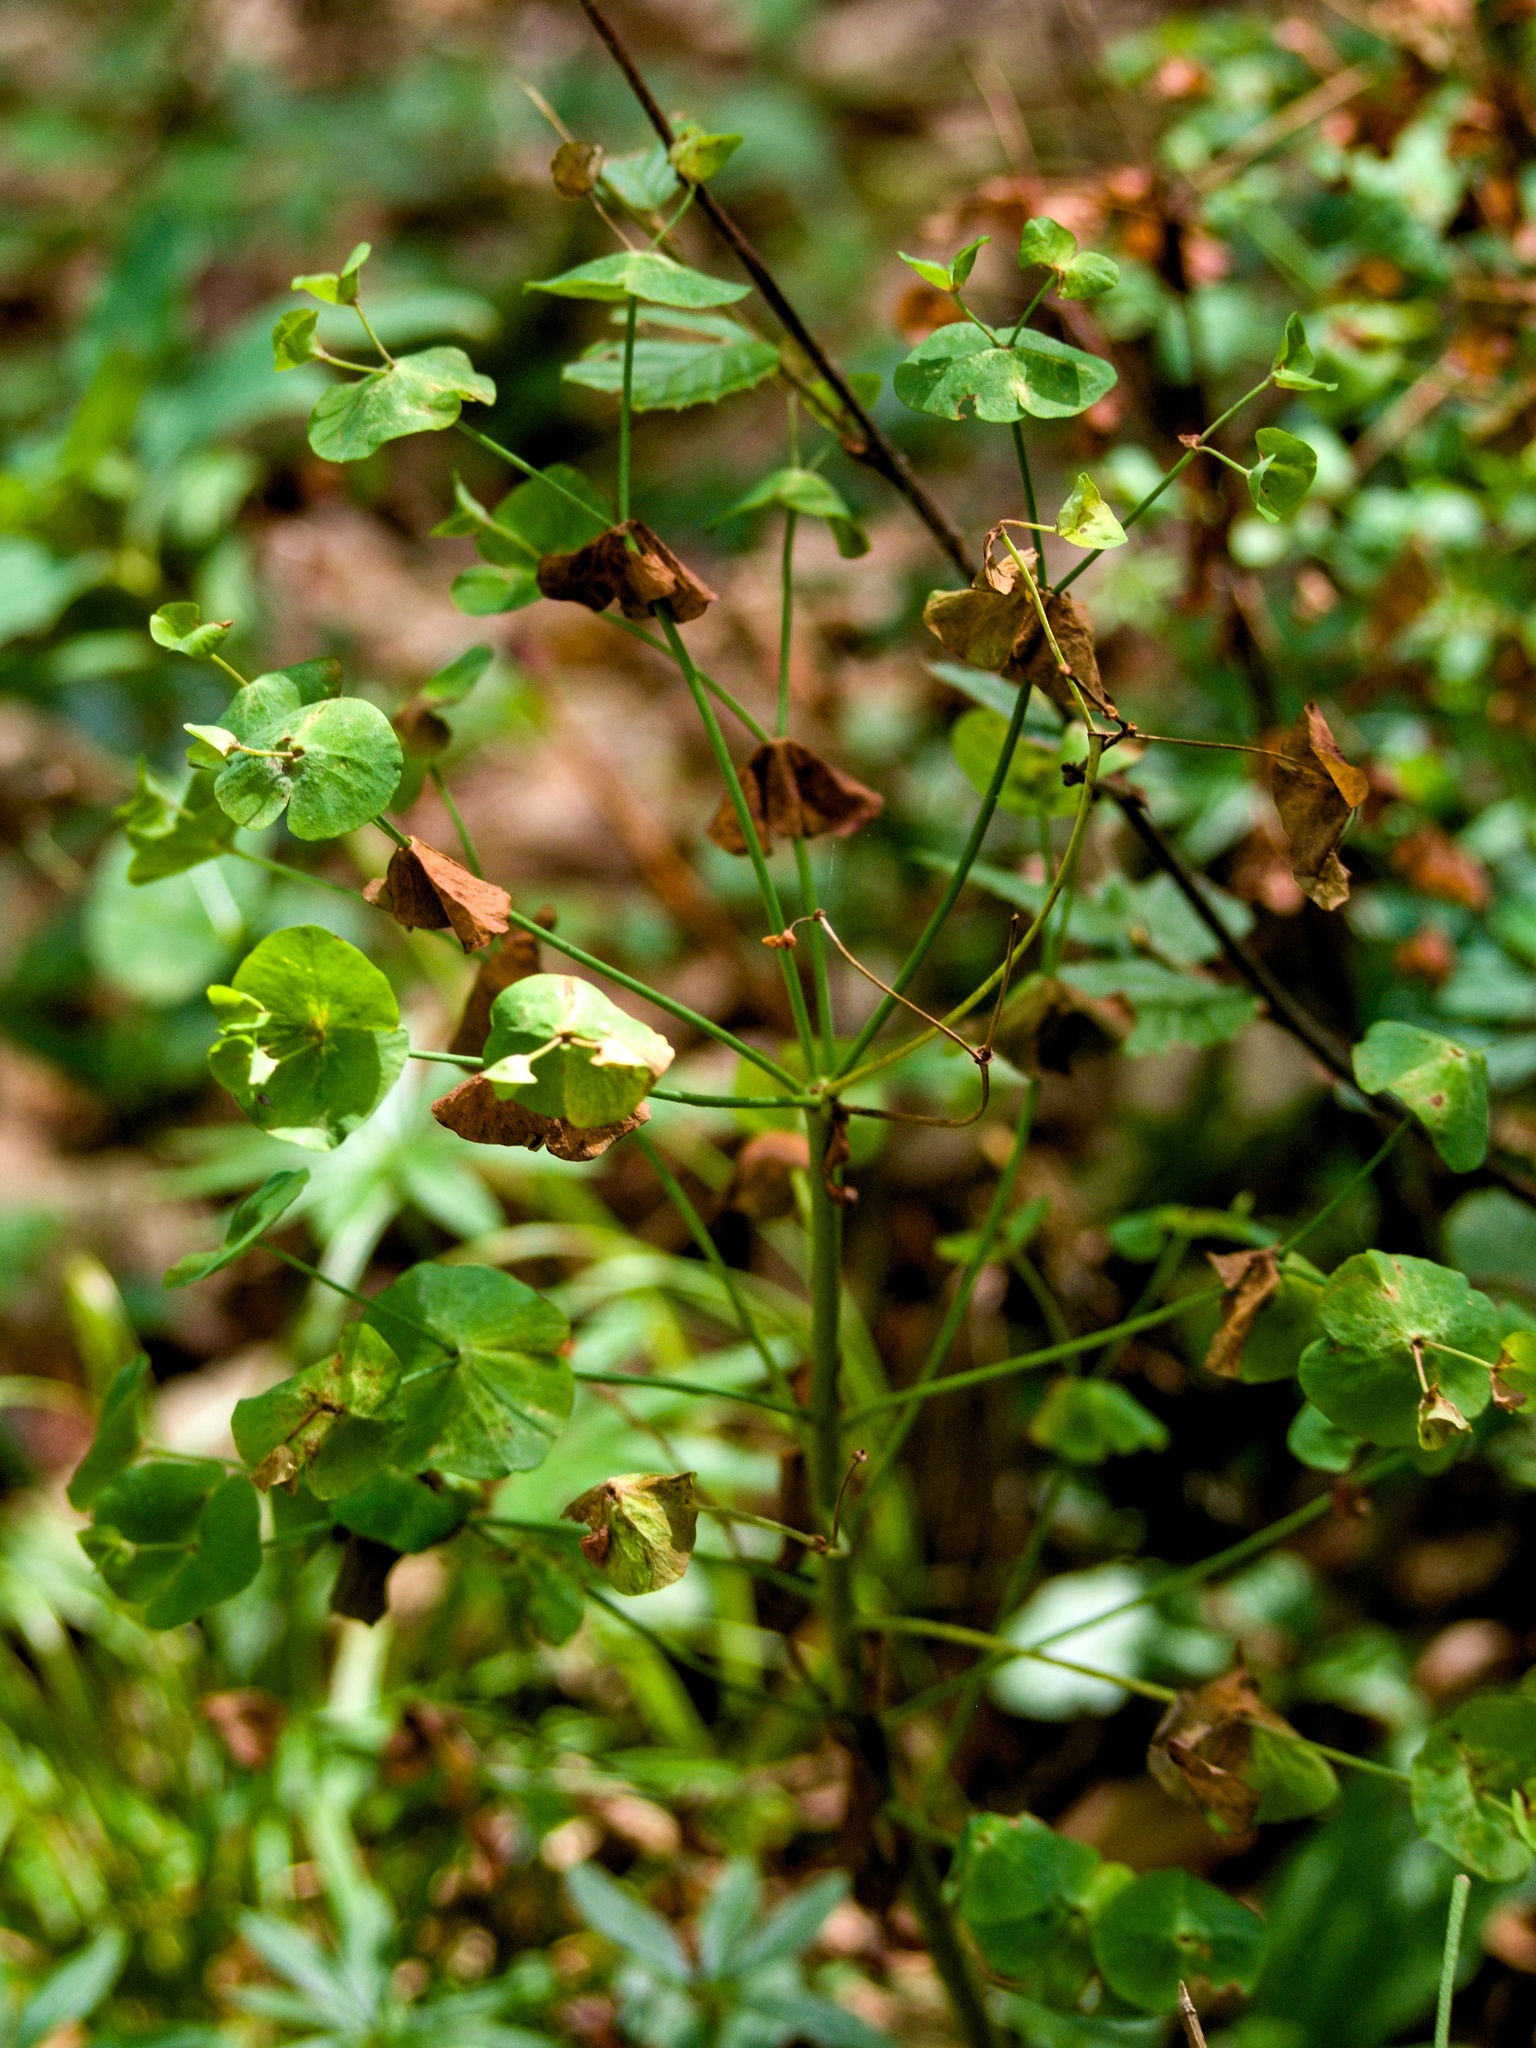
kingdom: Plantae
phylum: Tracheophyta
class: Magnoliopsida
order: Malpighiales
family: Euphorbiaceae
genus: Euphorbia
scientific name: Euphorbia amygdaloides
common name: Wood spurge
